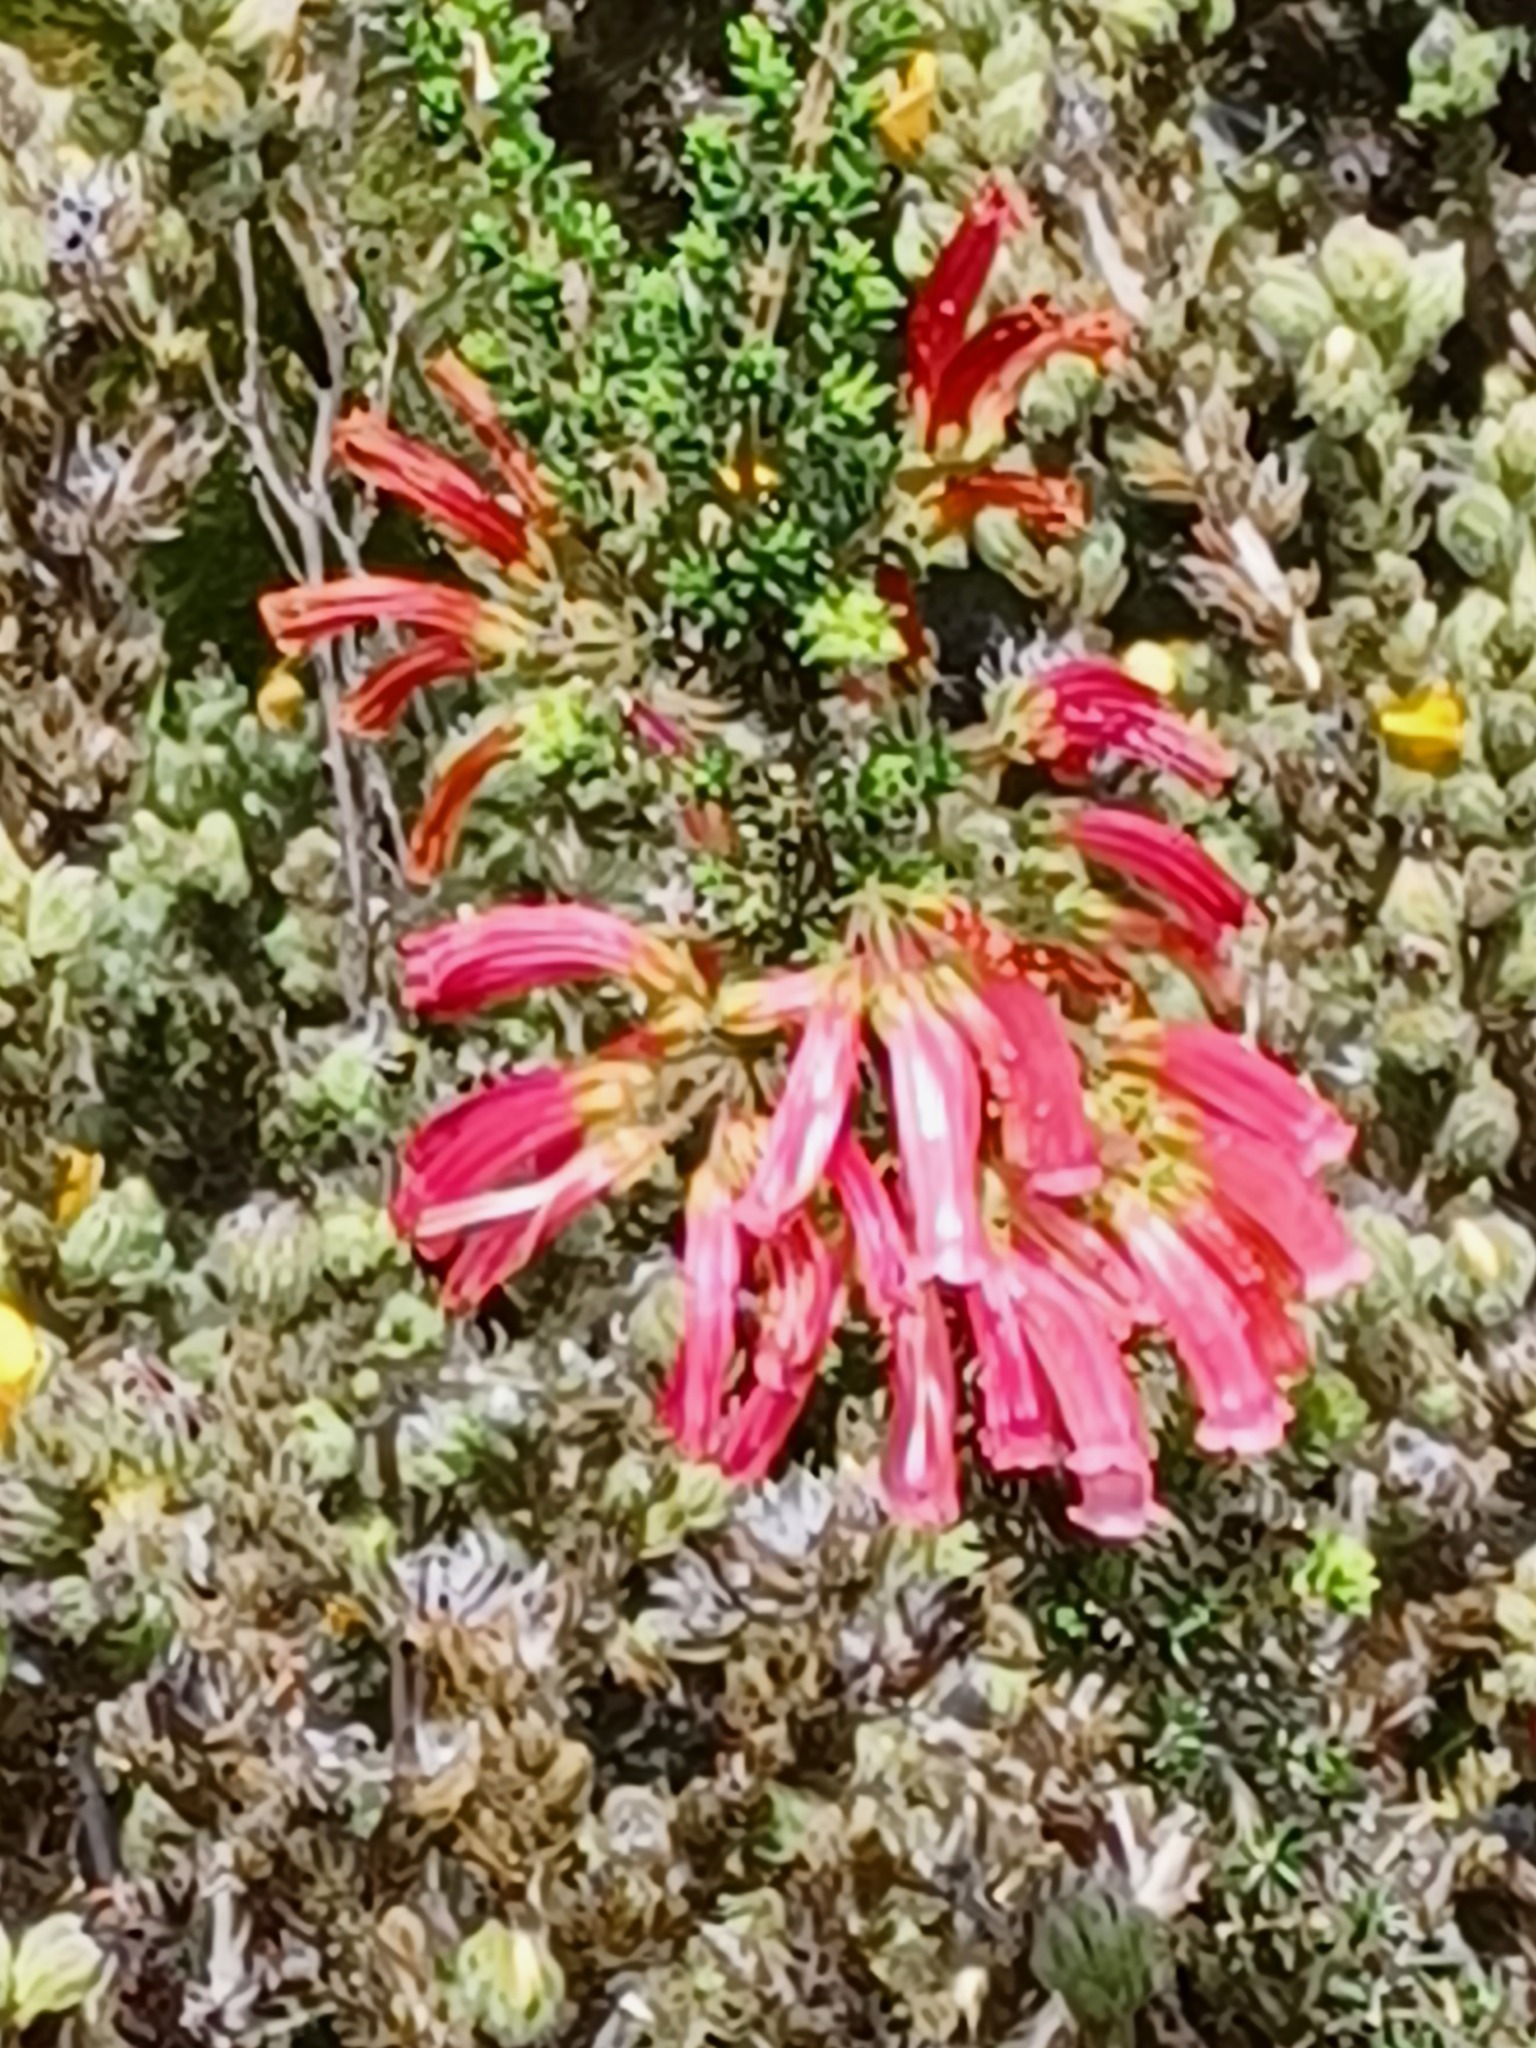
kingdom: Plantae
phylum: Tracheophyta
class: Magnoliopsida
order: Ericales
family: Ericaceae
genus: Erica
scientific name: Erica glandulosa
